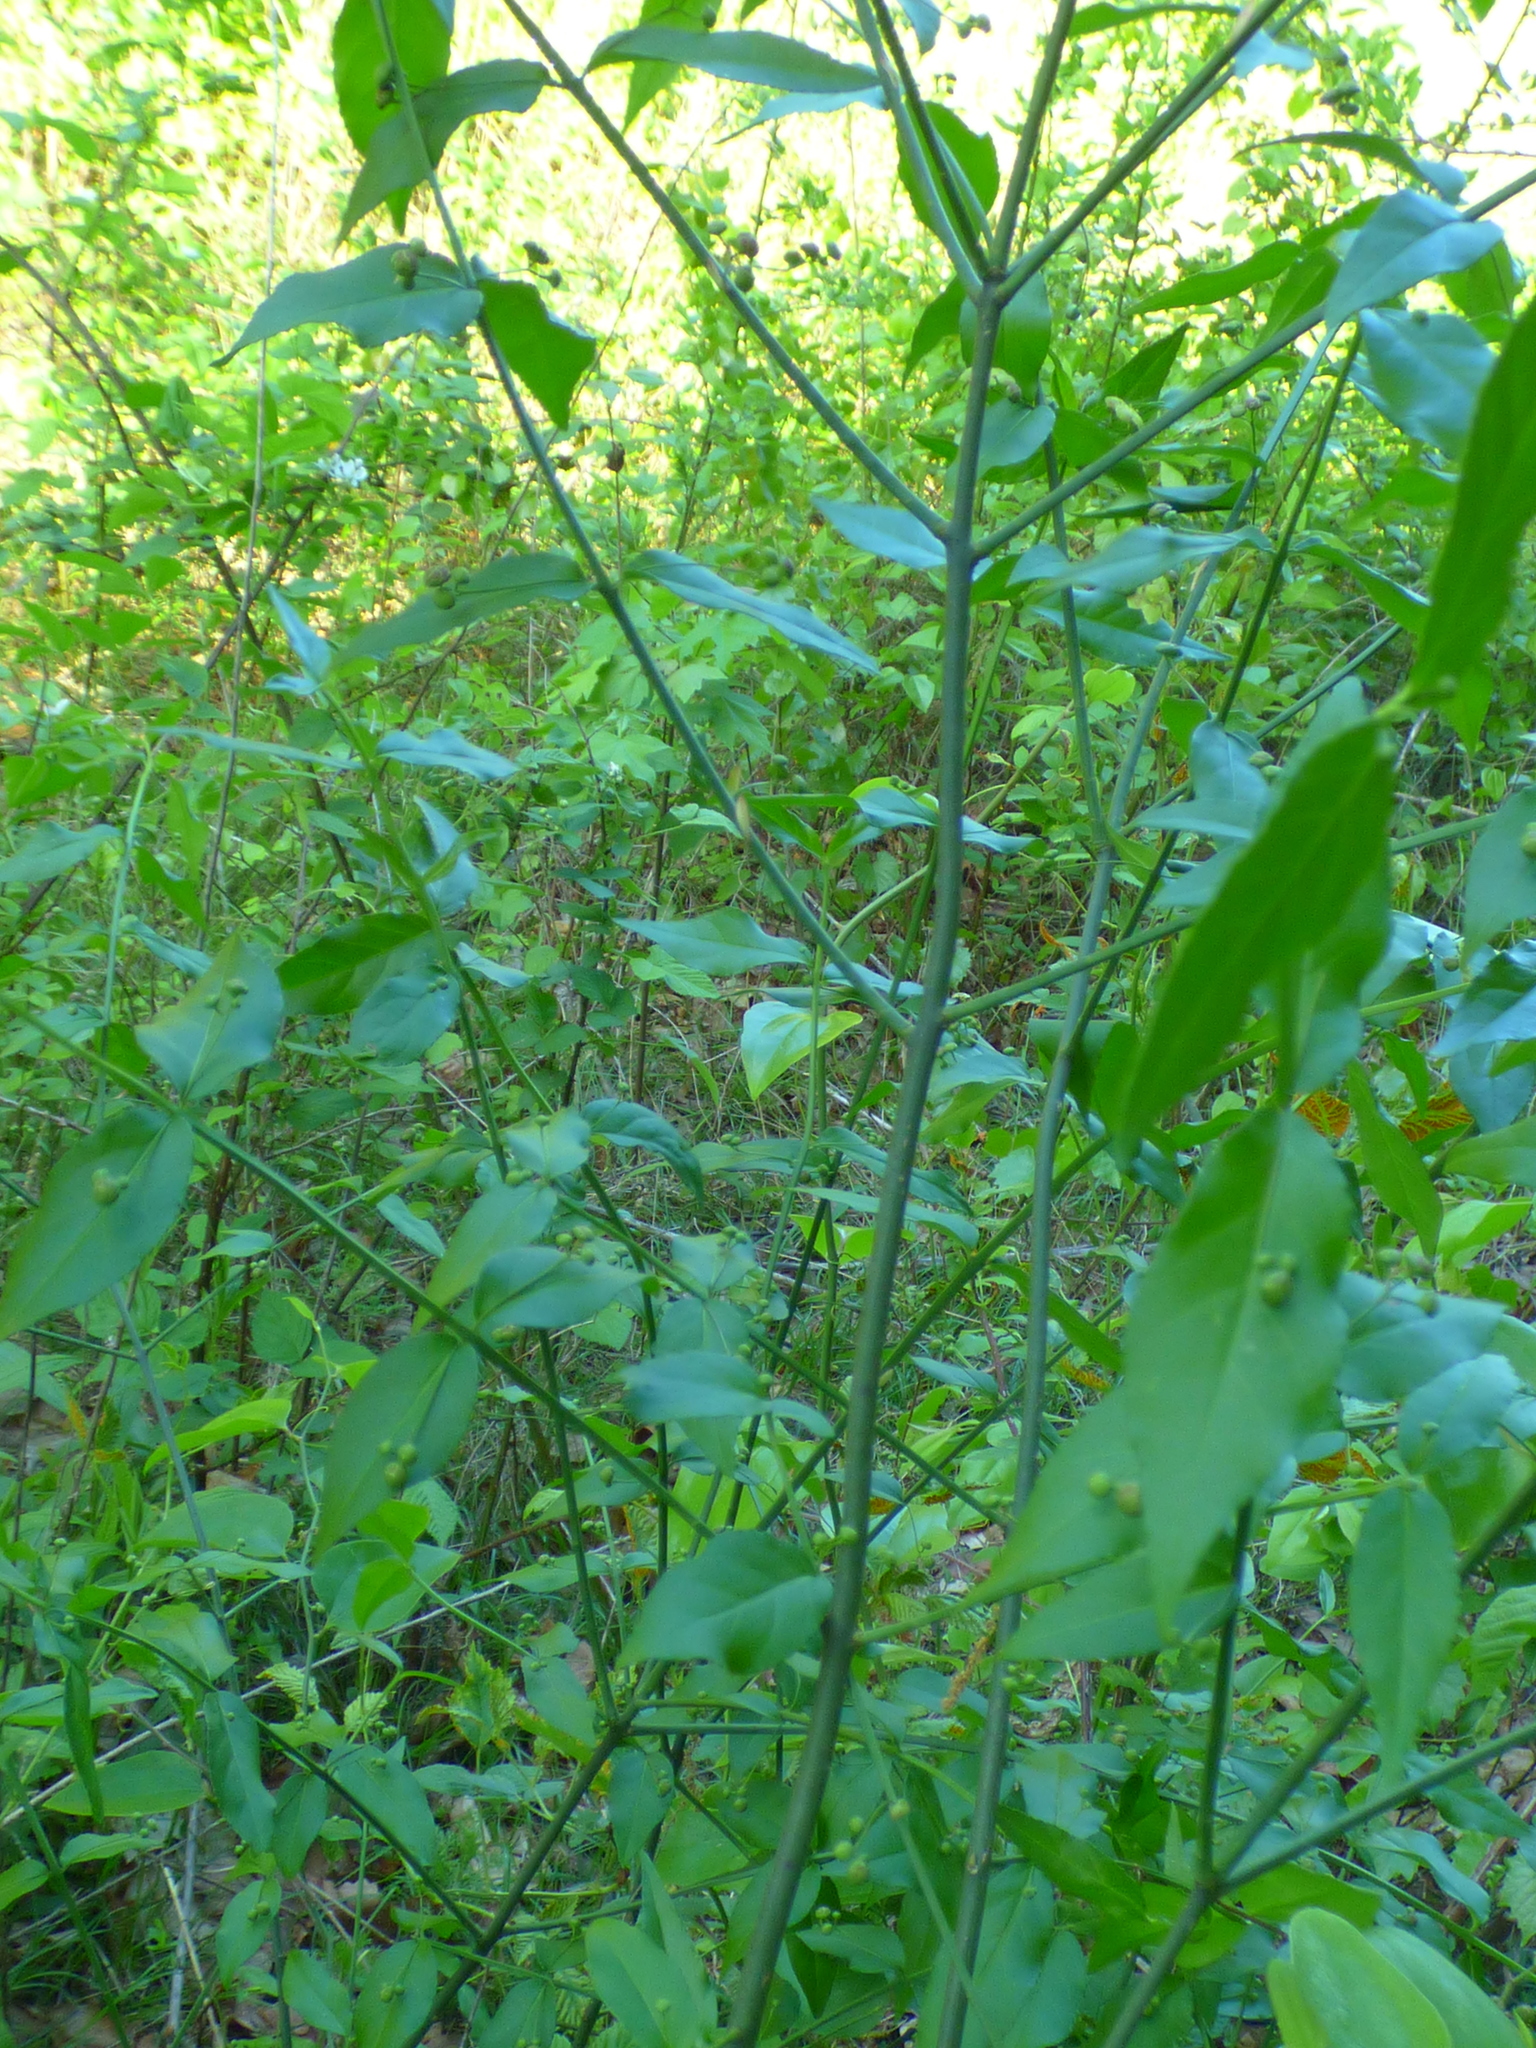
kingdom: Plantae
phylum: Tracheophyta
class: Magnoliopsida
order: Celastrales
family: Celastraceae
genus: Euonymus
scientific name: Euonymus americanus
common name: Bursting-heart
